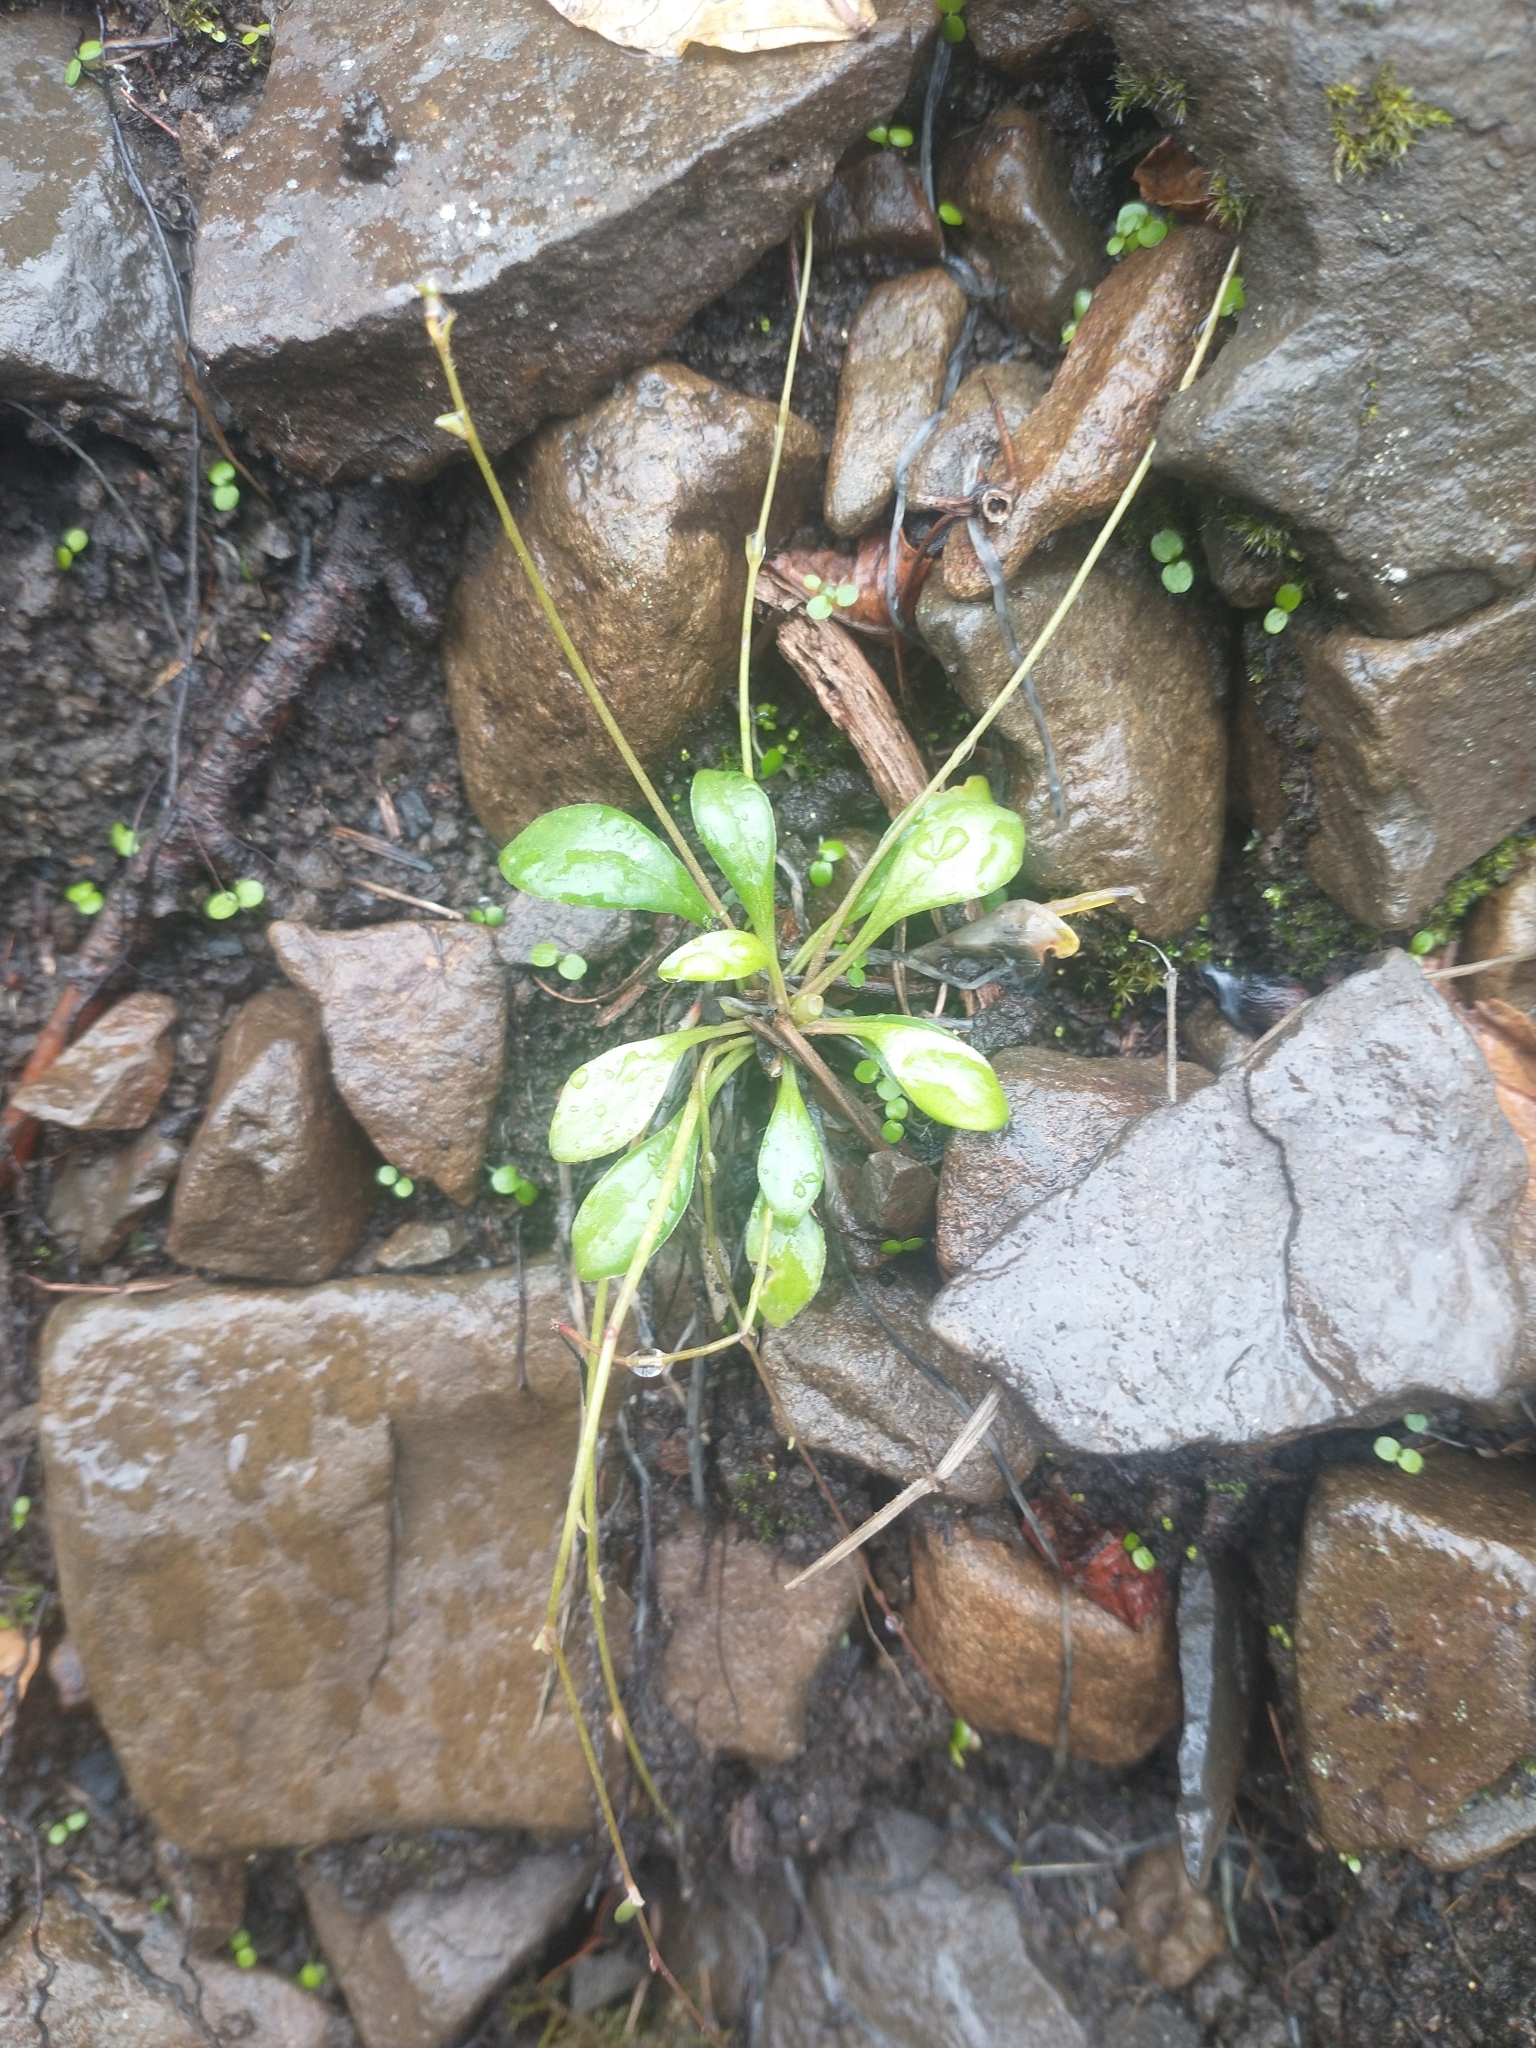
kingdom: Plantae
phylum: Tracheophyta
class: Magnoliopsida
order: Caryophyllales
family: Montiaceae
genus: Montia
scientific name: Montia parvifolia
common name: Small-leaved blinks
